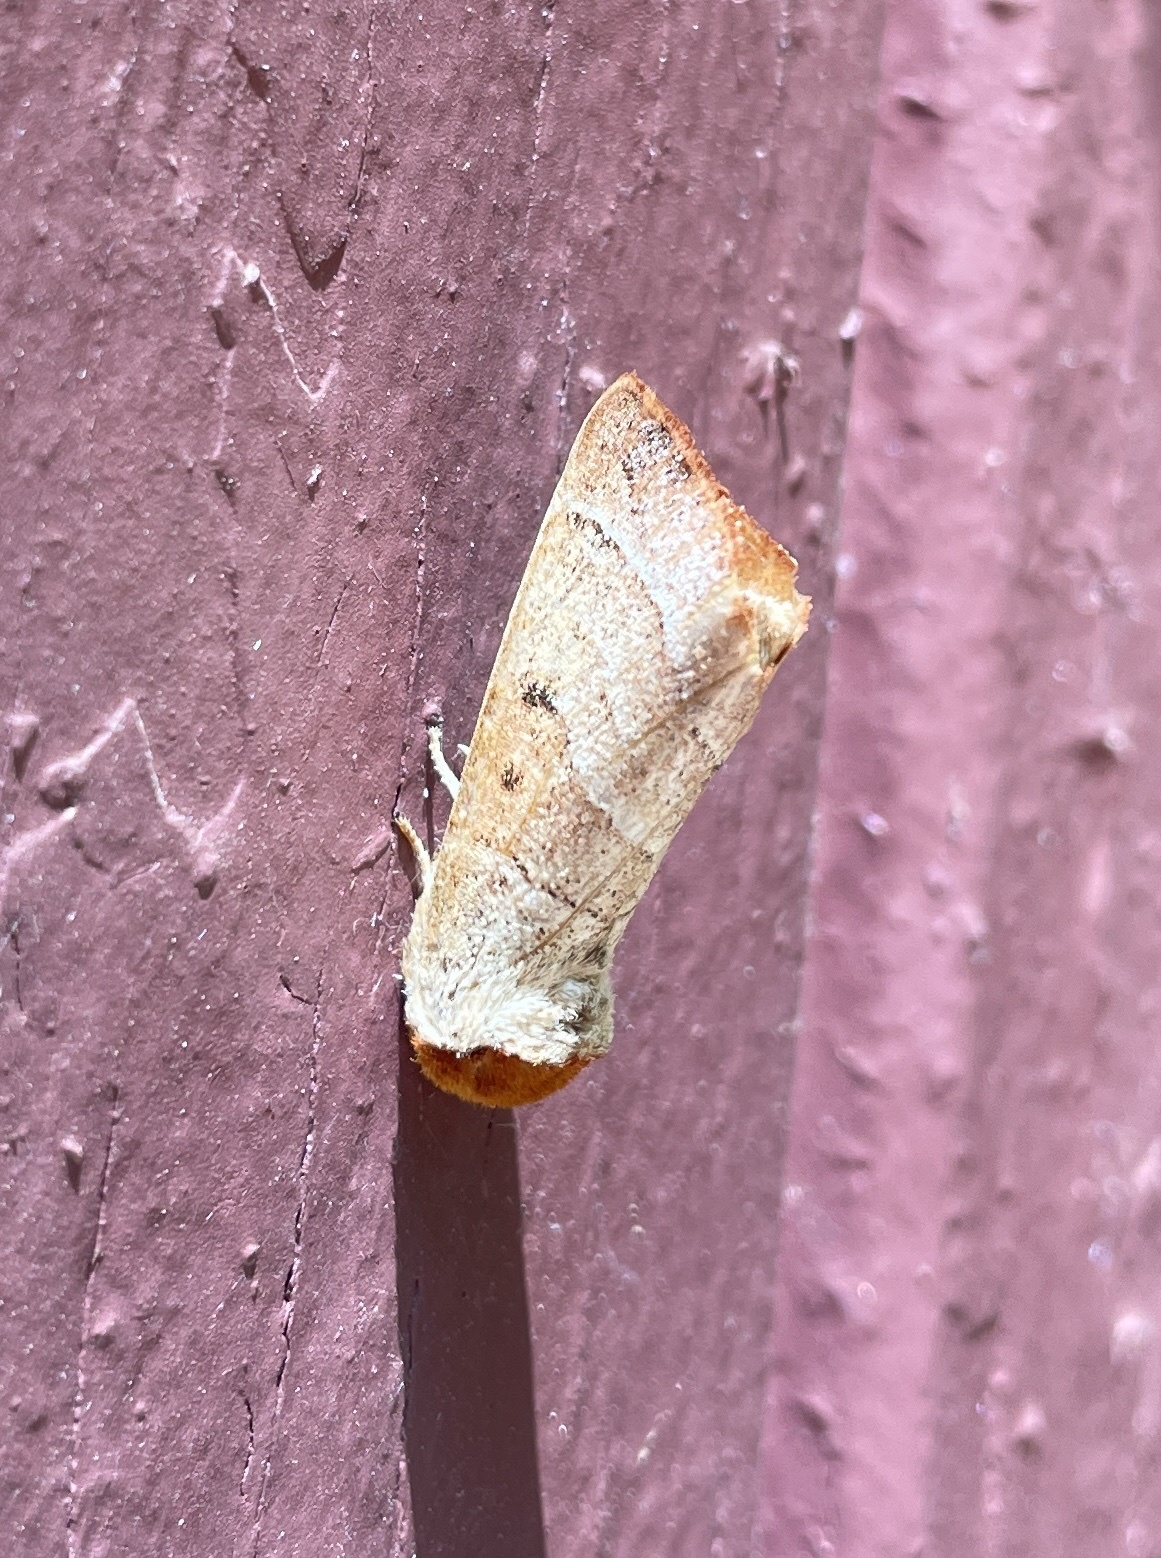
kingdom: Animalia
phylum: Arthropoda
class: Insecta
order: Lepidoptera
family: Notodontidae
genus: Datana
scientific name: Datana contracta
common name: Contracted datana
